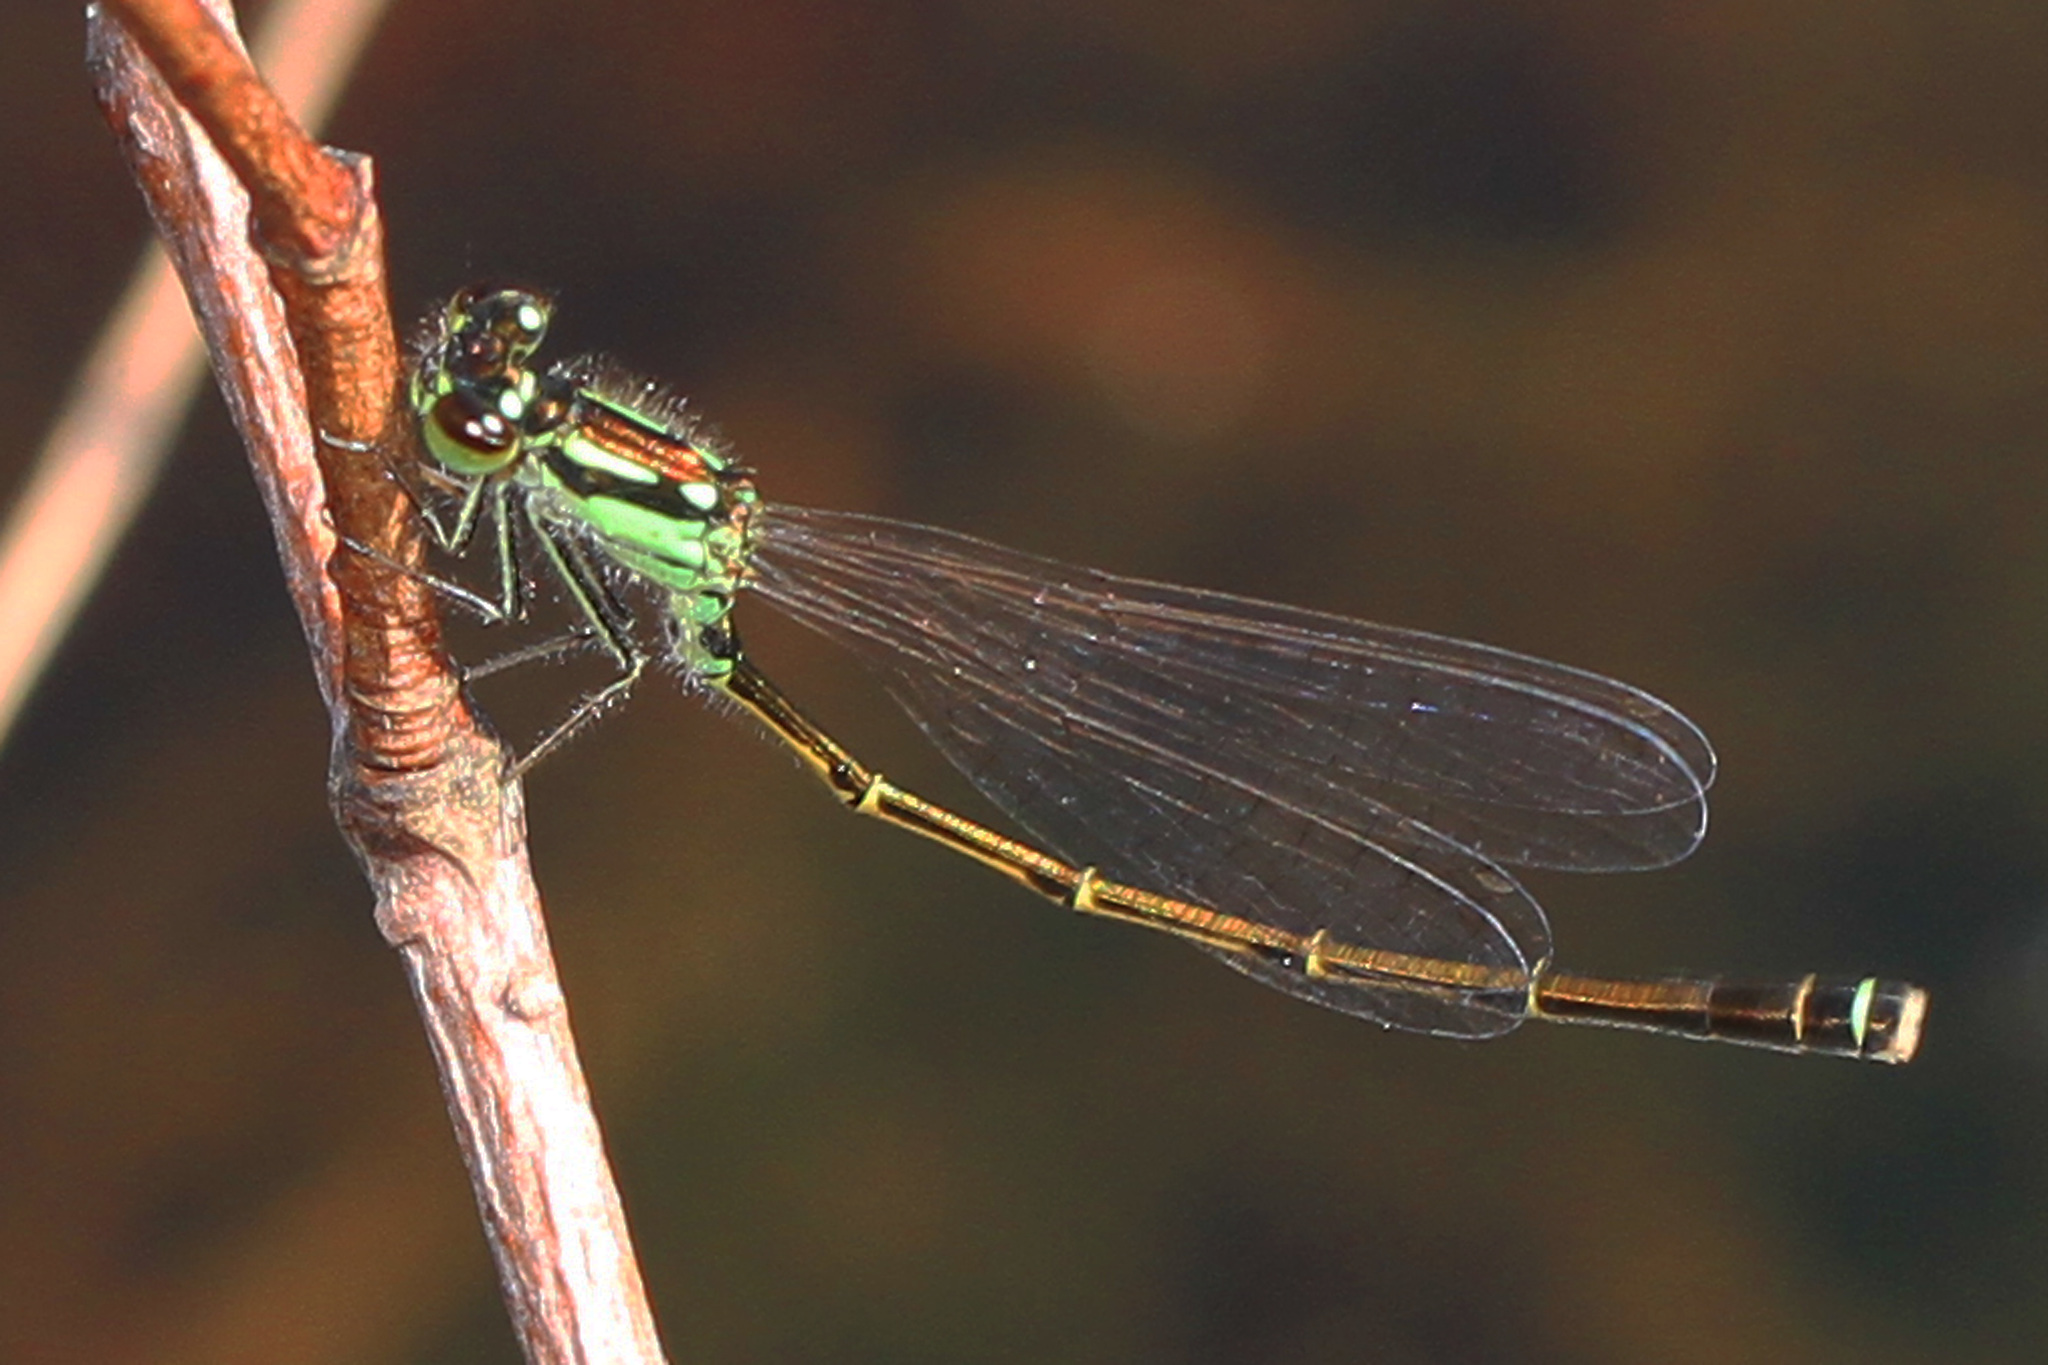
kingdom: Animalia
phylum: Arthropoda
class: Insecta
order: Odonata
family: Coenagrionidae
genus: Ischnura
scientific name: Ischnura posita
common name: Fragile forktail
